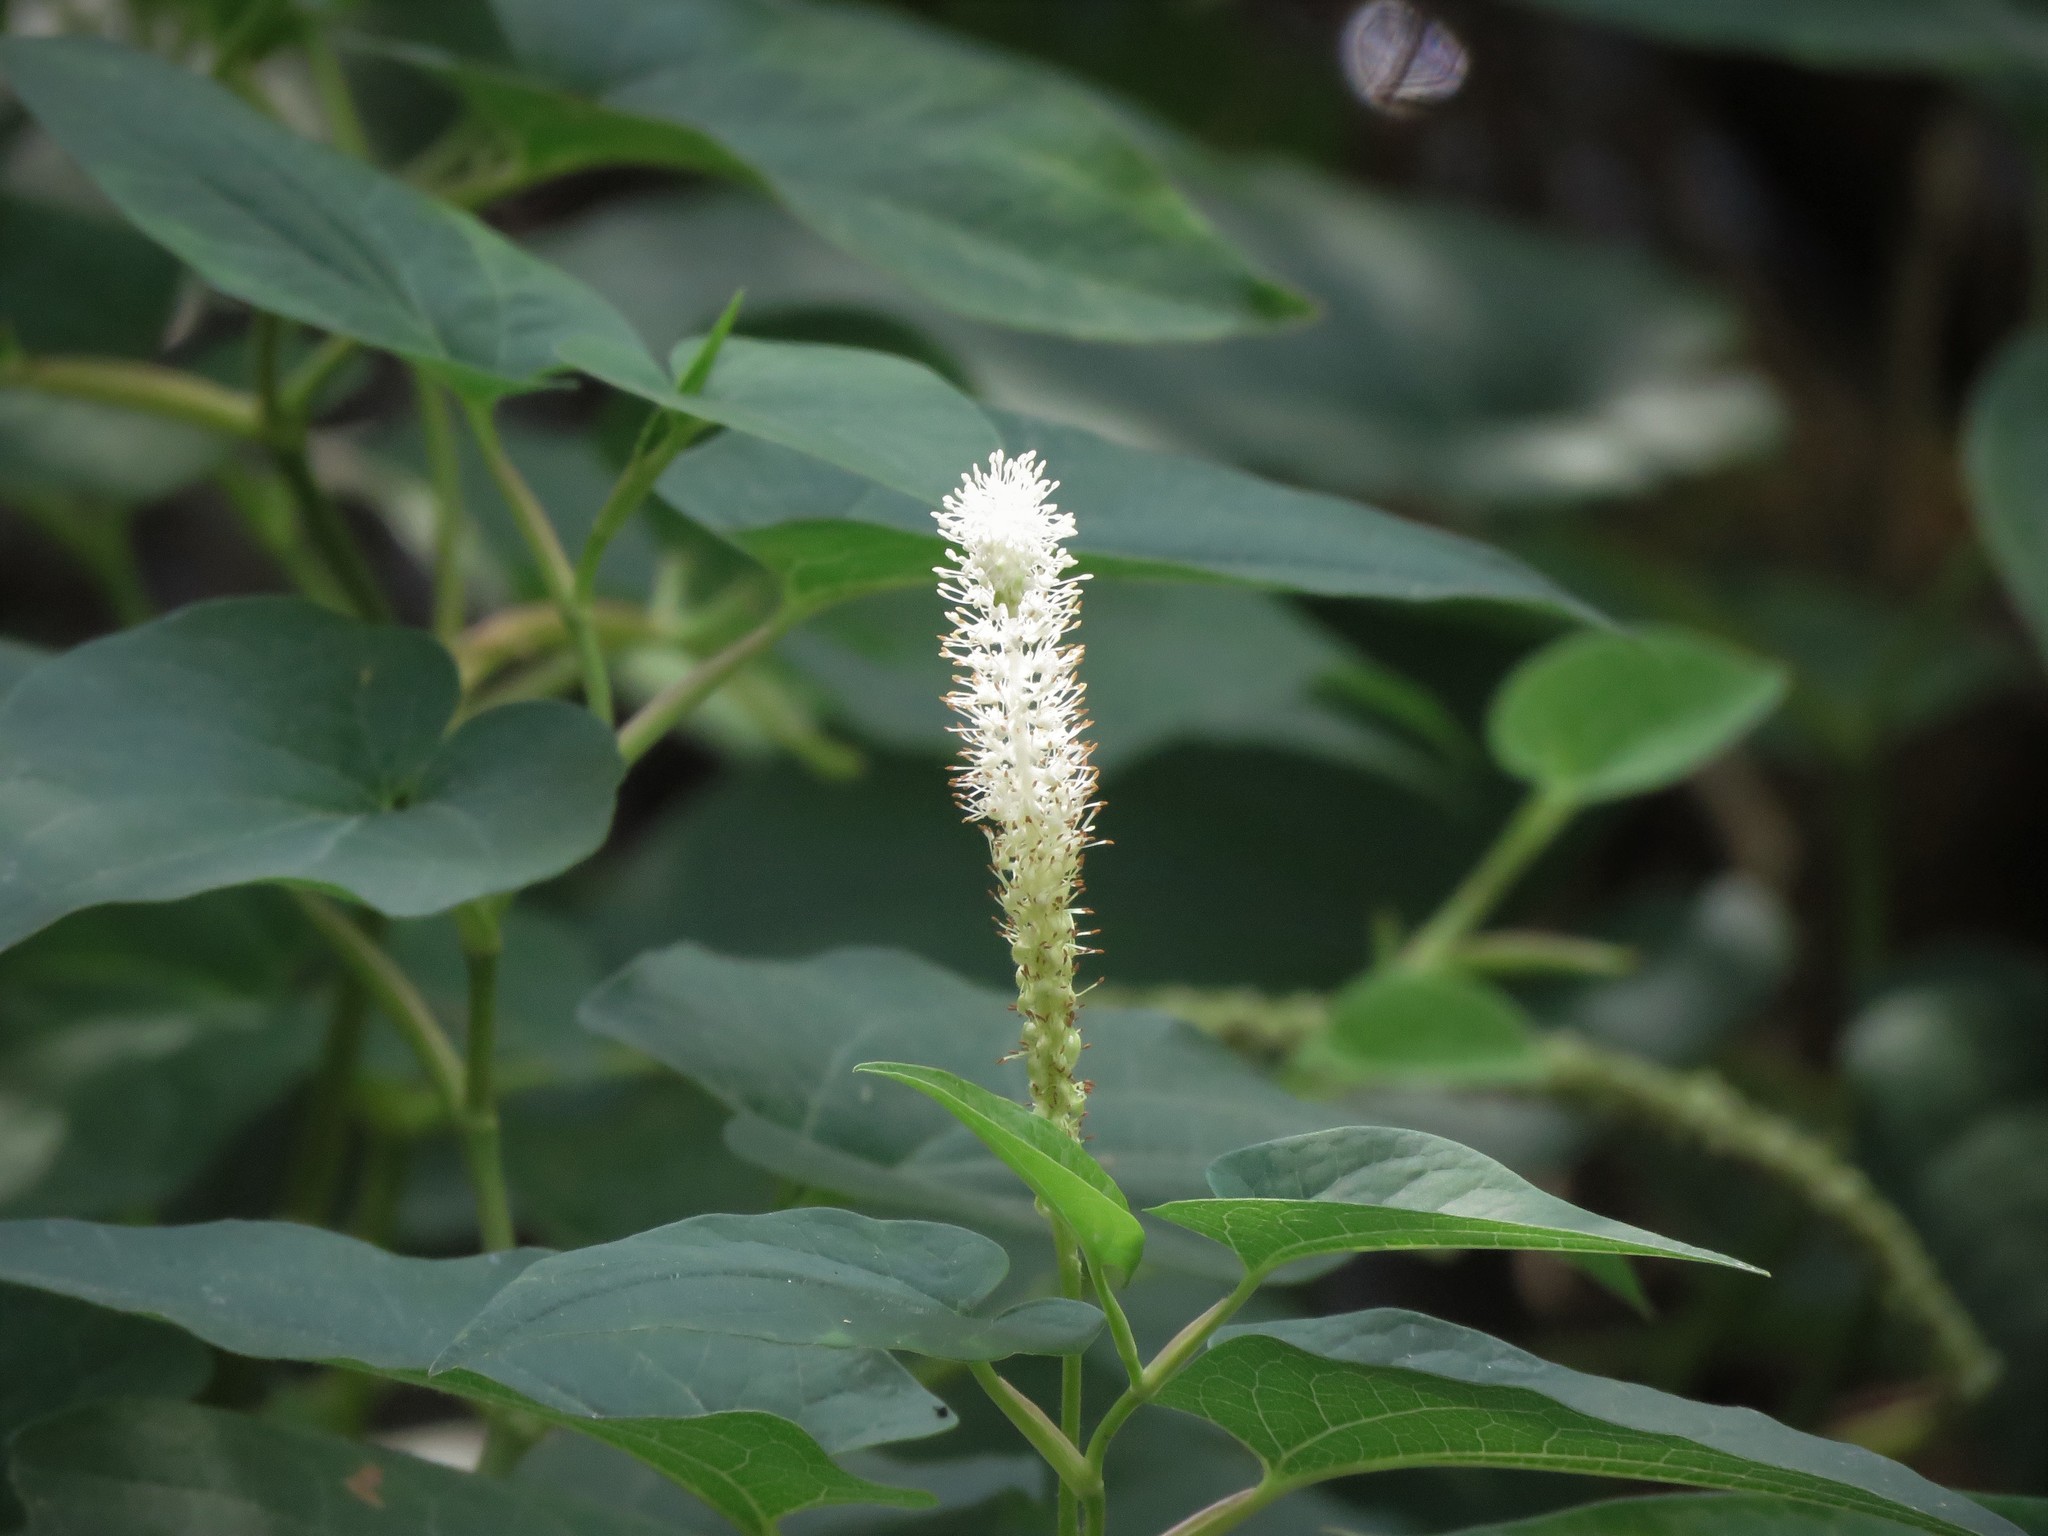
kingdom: Plantae
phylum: Tracheophyta
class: Magnoliopsida
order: Piperales
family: Saururaceae
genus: Saururus
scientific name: Saururus cernuus
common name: Lizard's-tail
